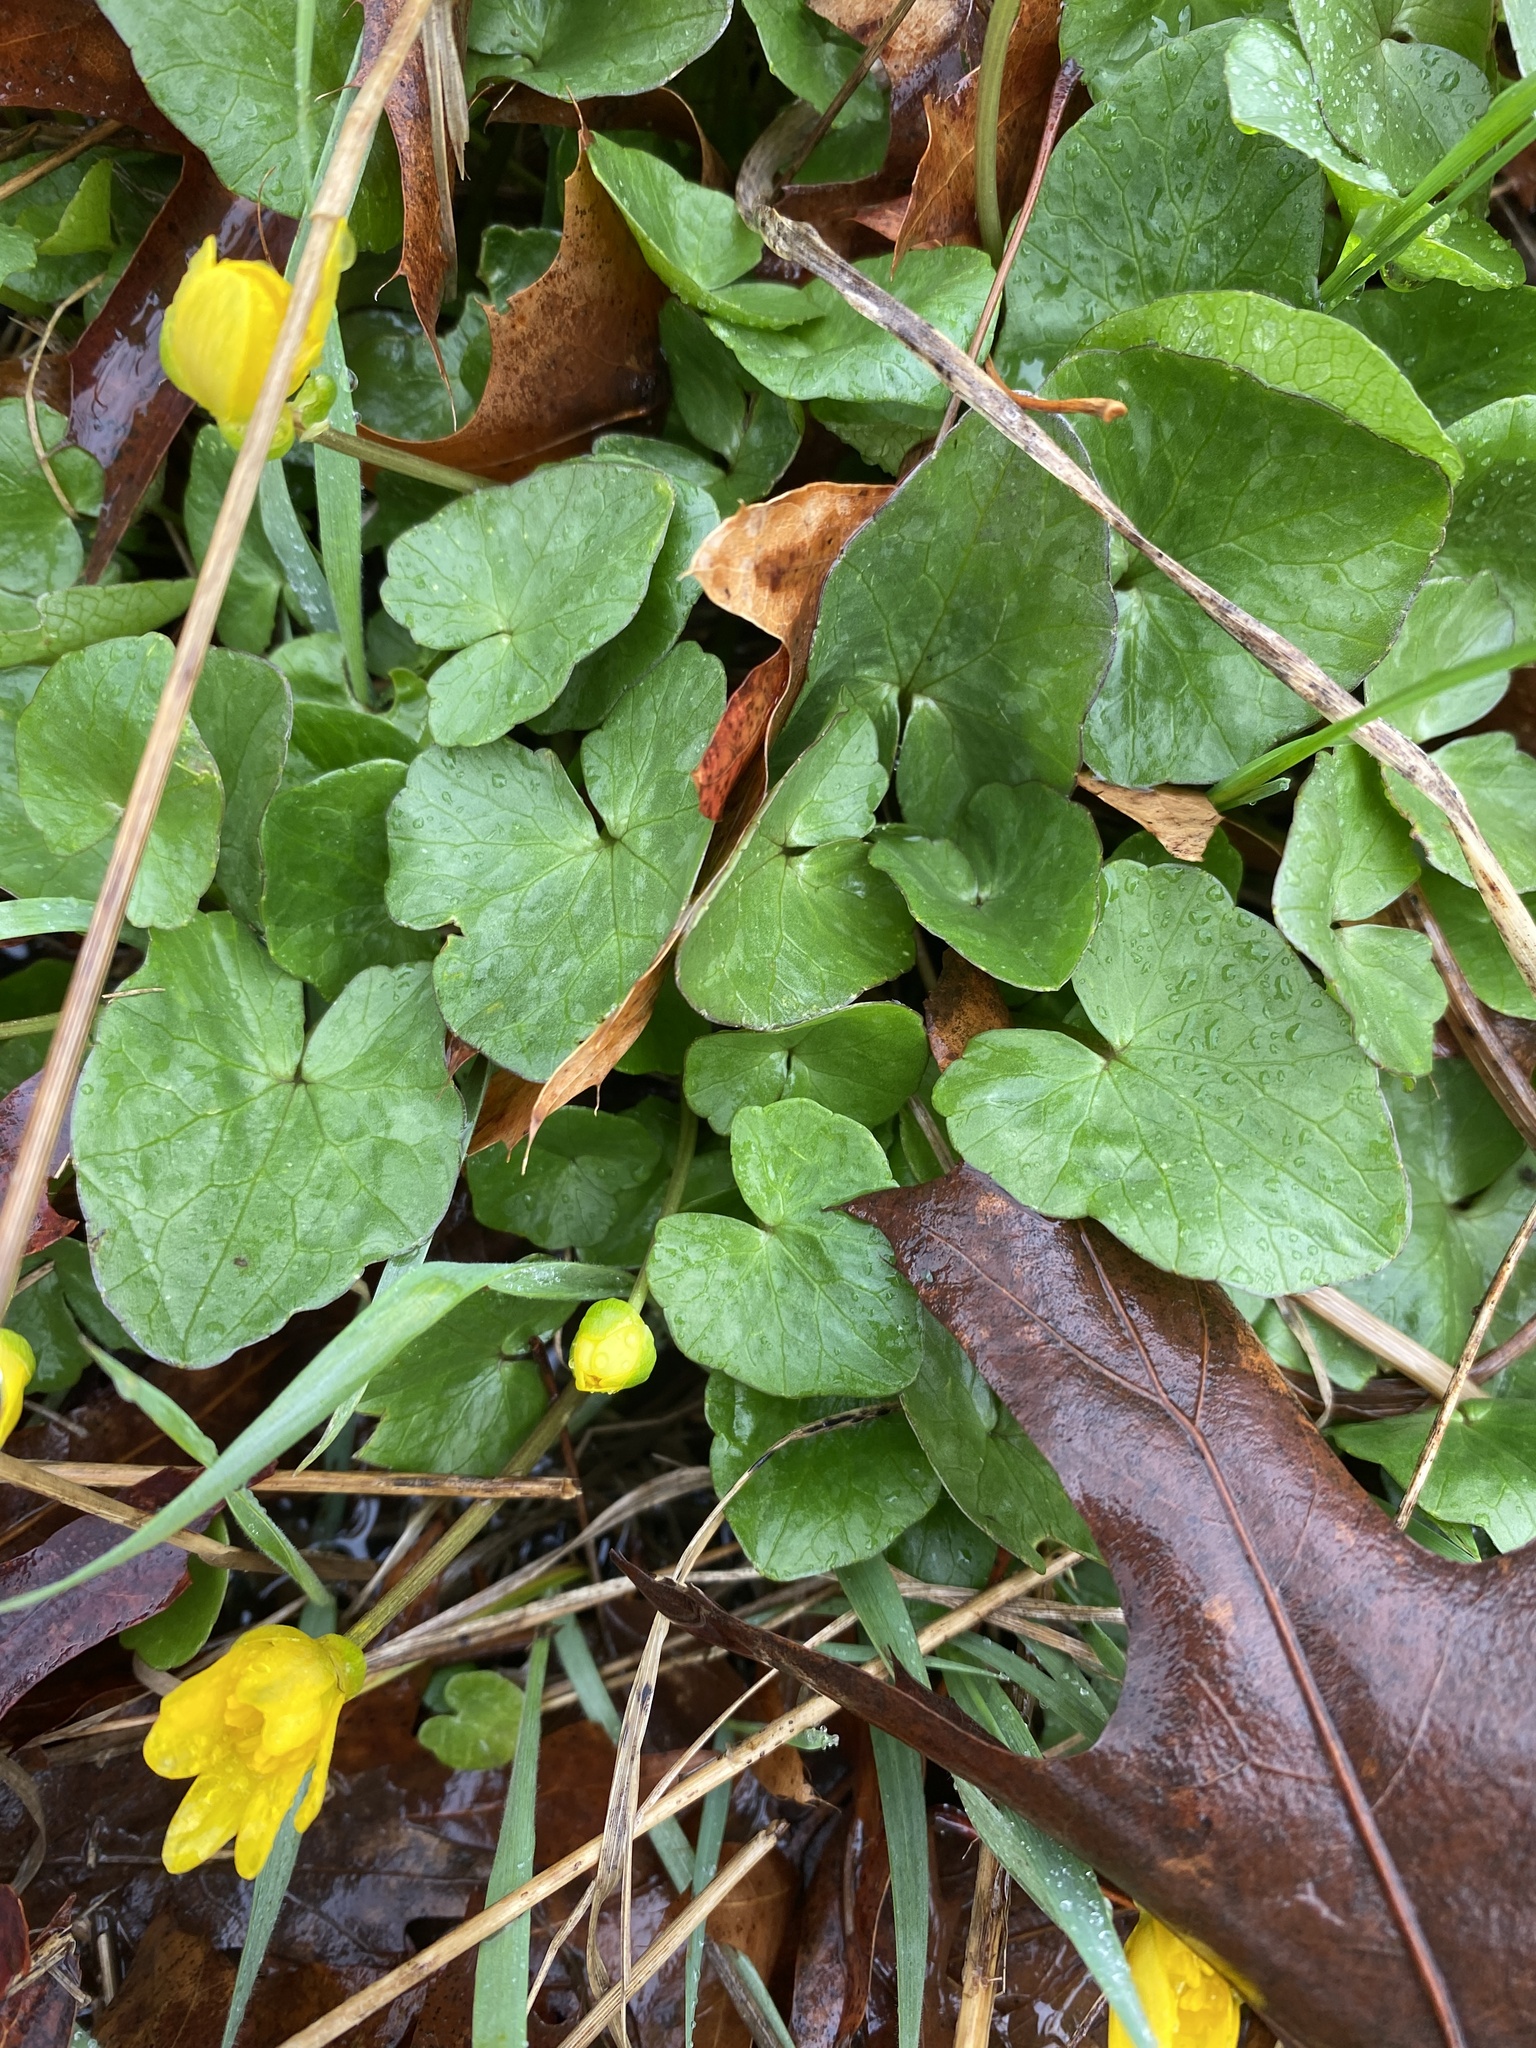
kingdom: Plantae
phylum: Tracheophyta
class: Magnoliopsida
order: Ranunculales
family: Ranunculaceae
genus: Ficaria
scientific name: Ficaria verna
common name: Lesser celandine
